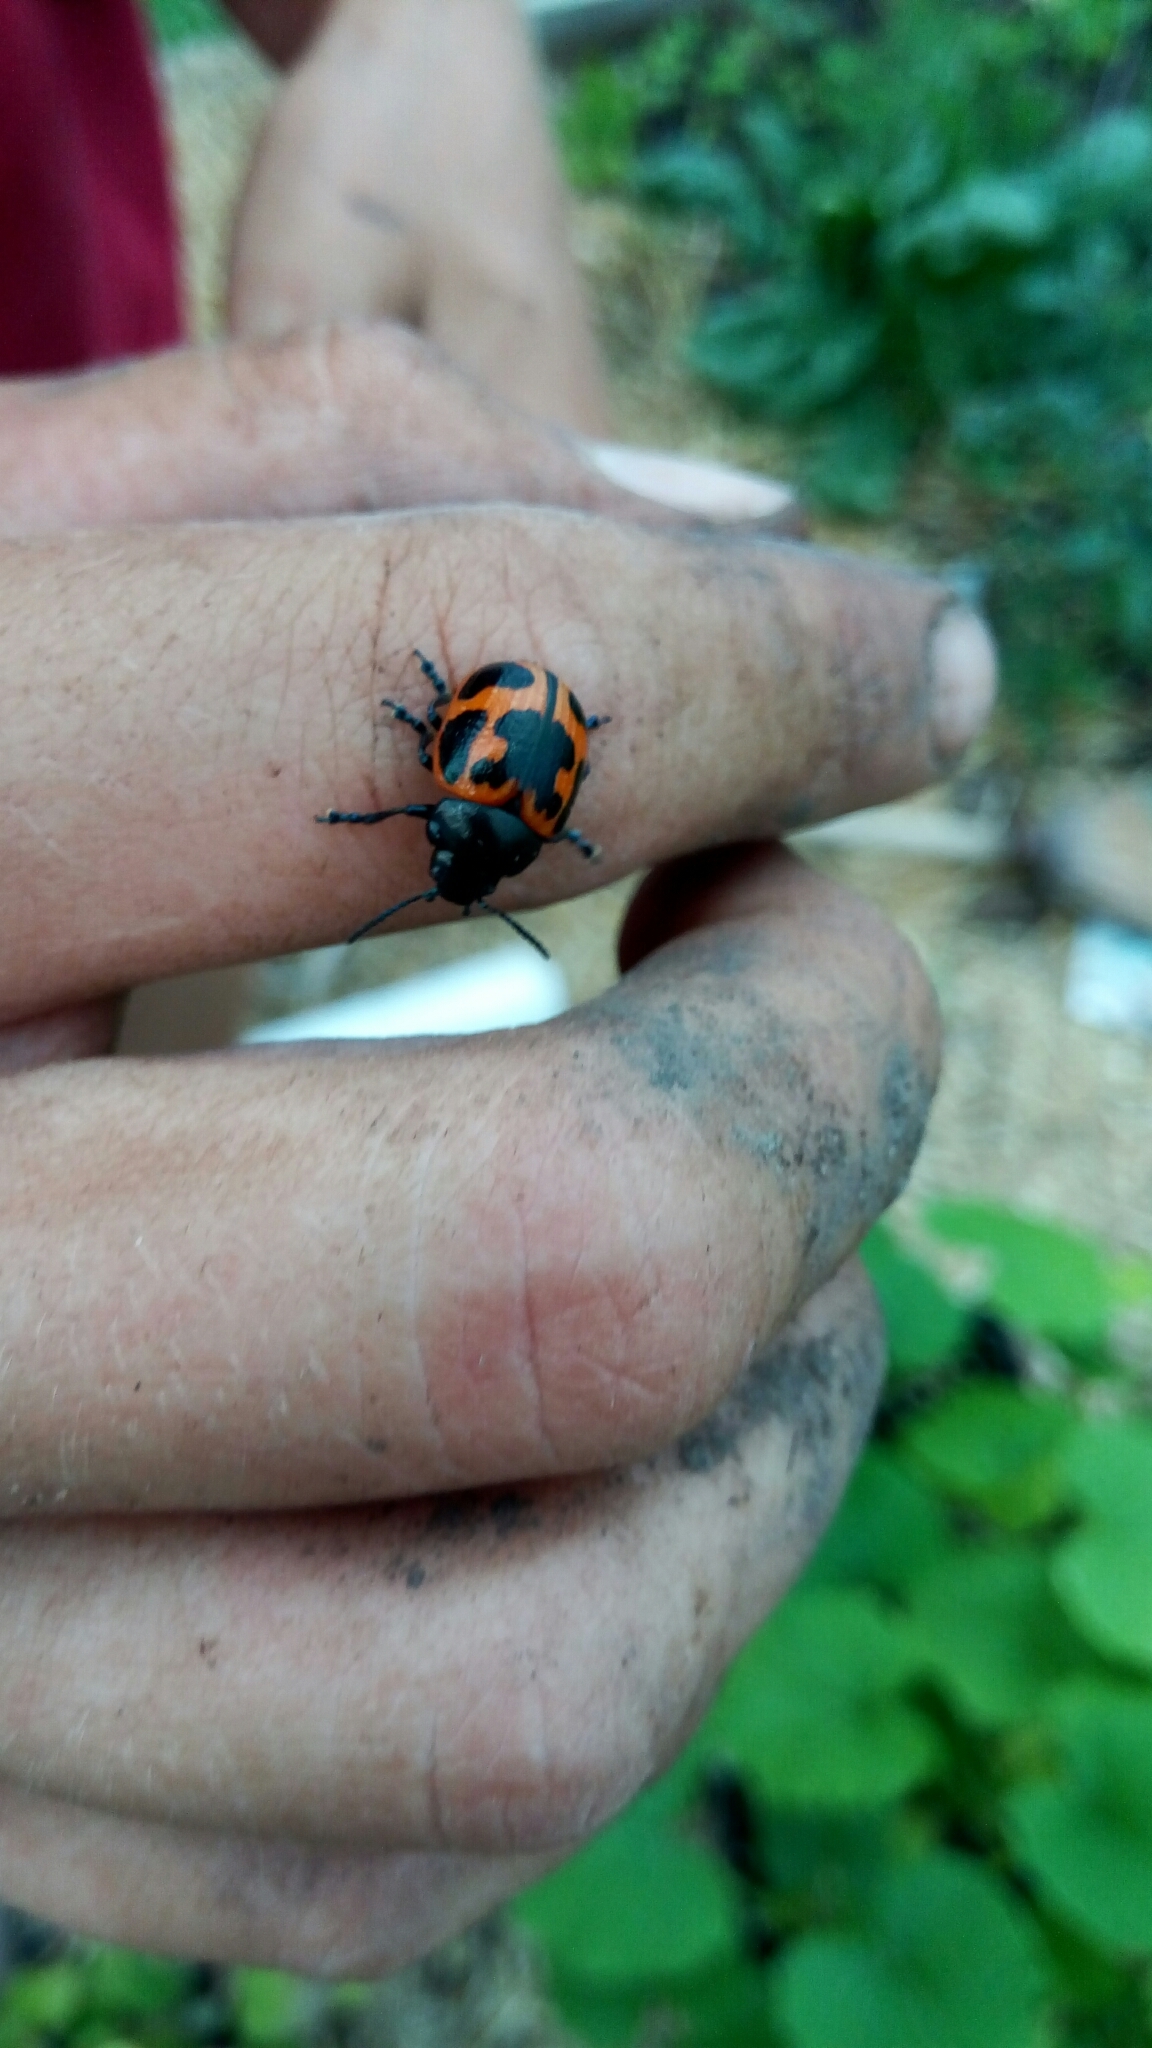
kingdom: Animalia
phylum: Arthropoda
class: Insecta
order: Coleoptera
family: Chrysomelidae
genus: Labidomera
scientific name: Labidomera clivicollis
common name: Swamp milkweed leaf beetle
